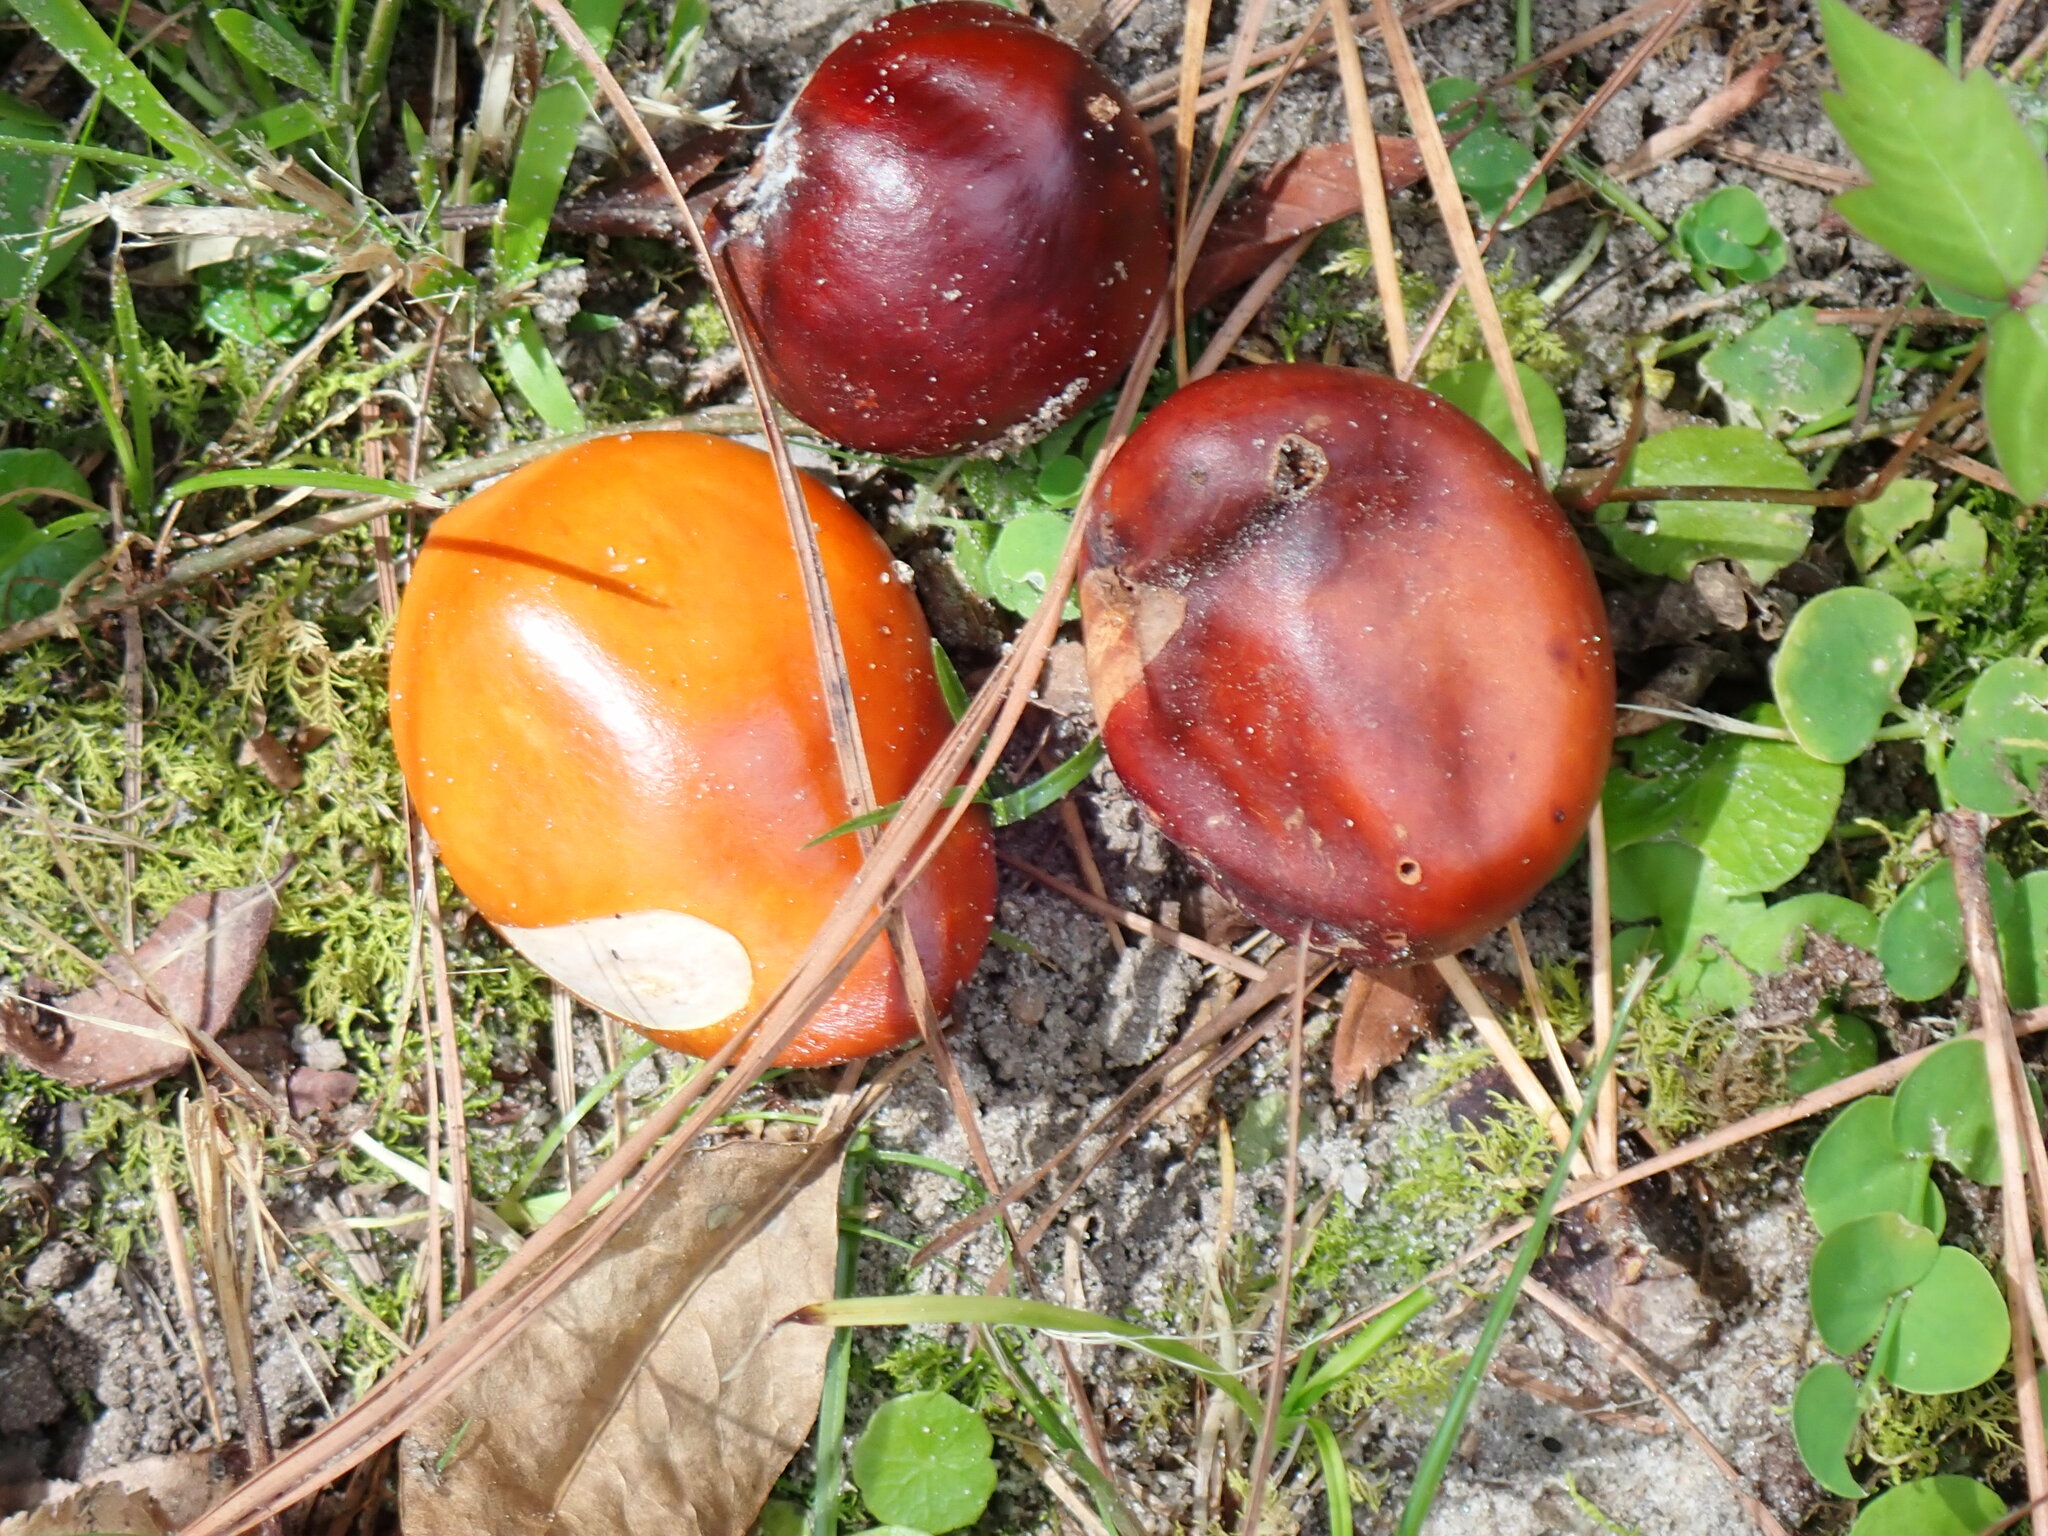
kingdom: Plantae
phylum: Tracheophyta
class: Magnoliopsida
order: Sapindales
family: Sapindaceae
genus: Aesculus
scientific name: Aesculus pavia
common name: Red buckeye
